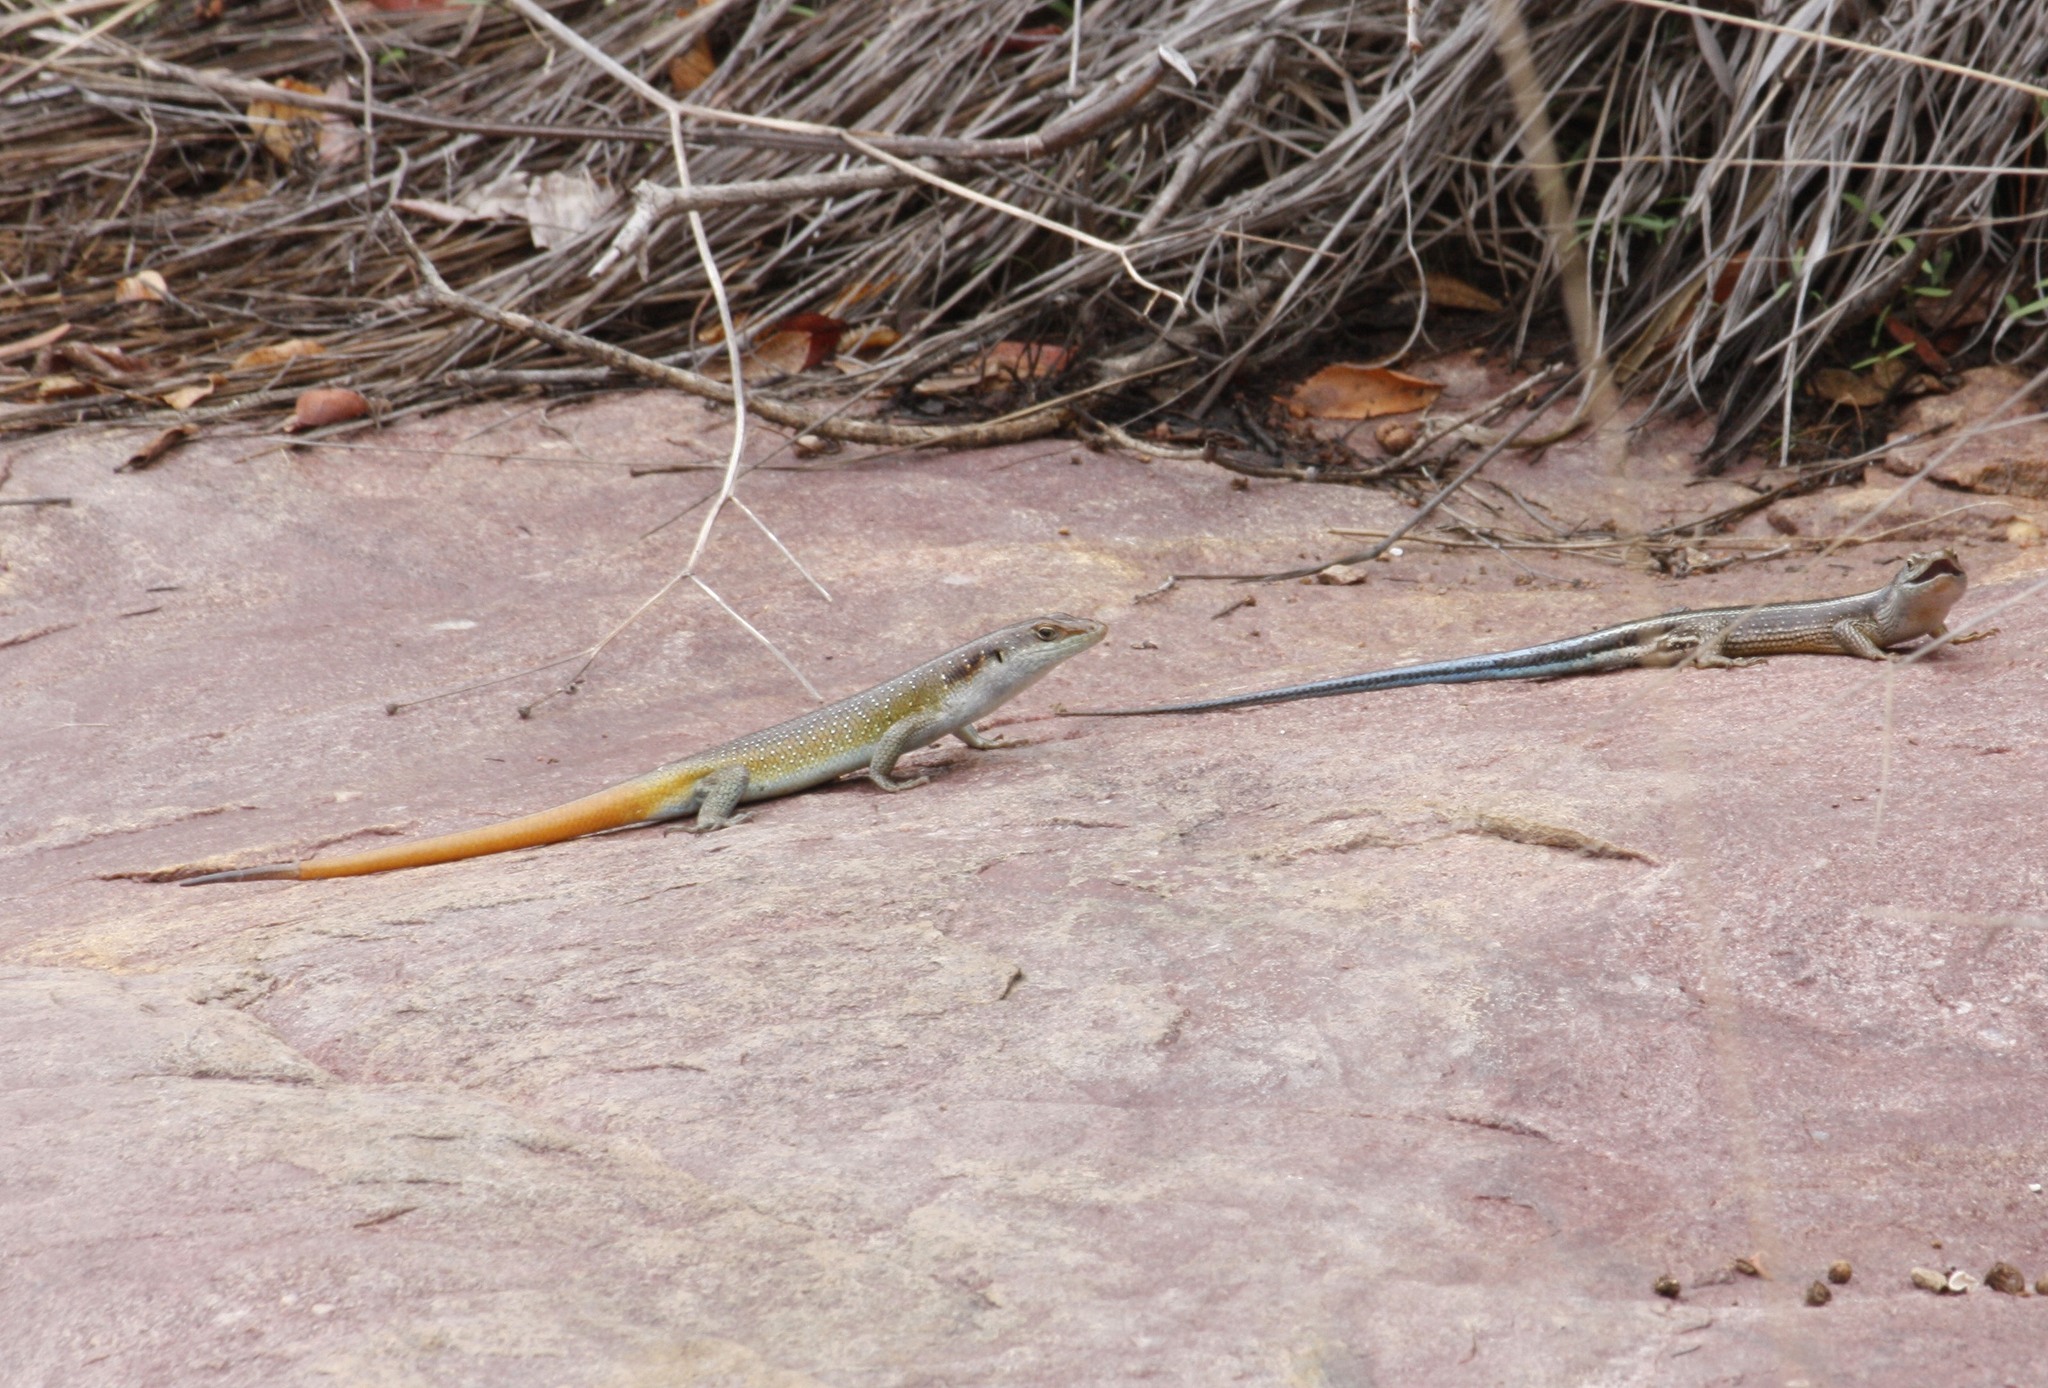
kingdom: Animalia
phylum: Chordata
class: Squamata
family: Scincidae
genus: Trachylepis
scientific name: Trachylepis margaritifera
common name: Rainbow skink
